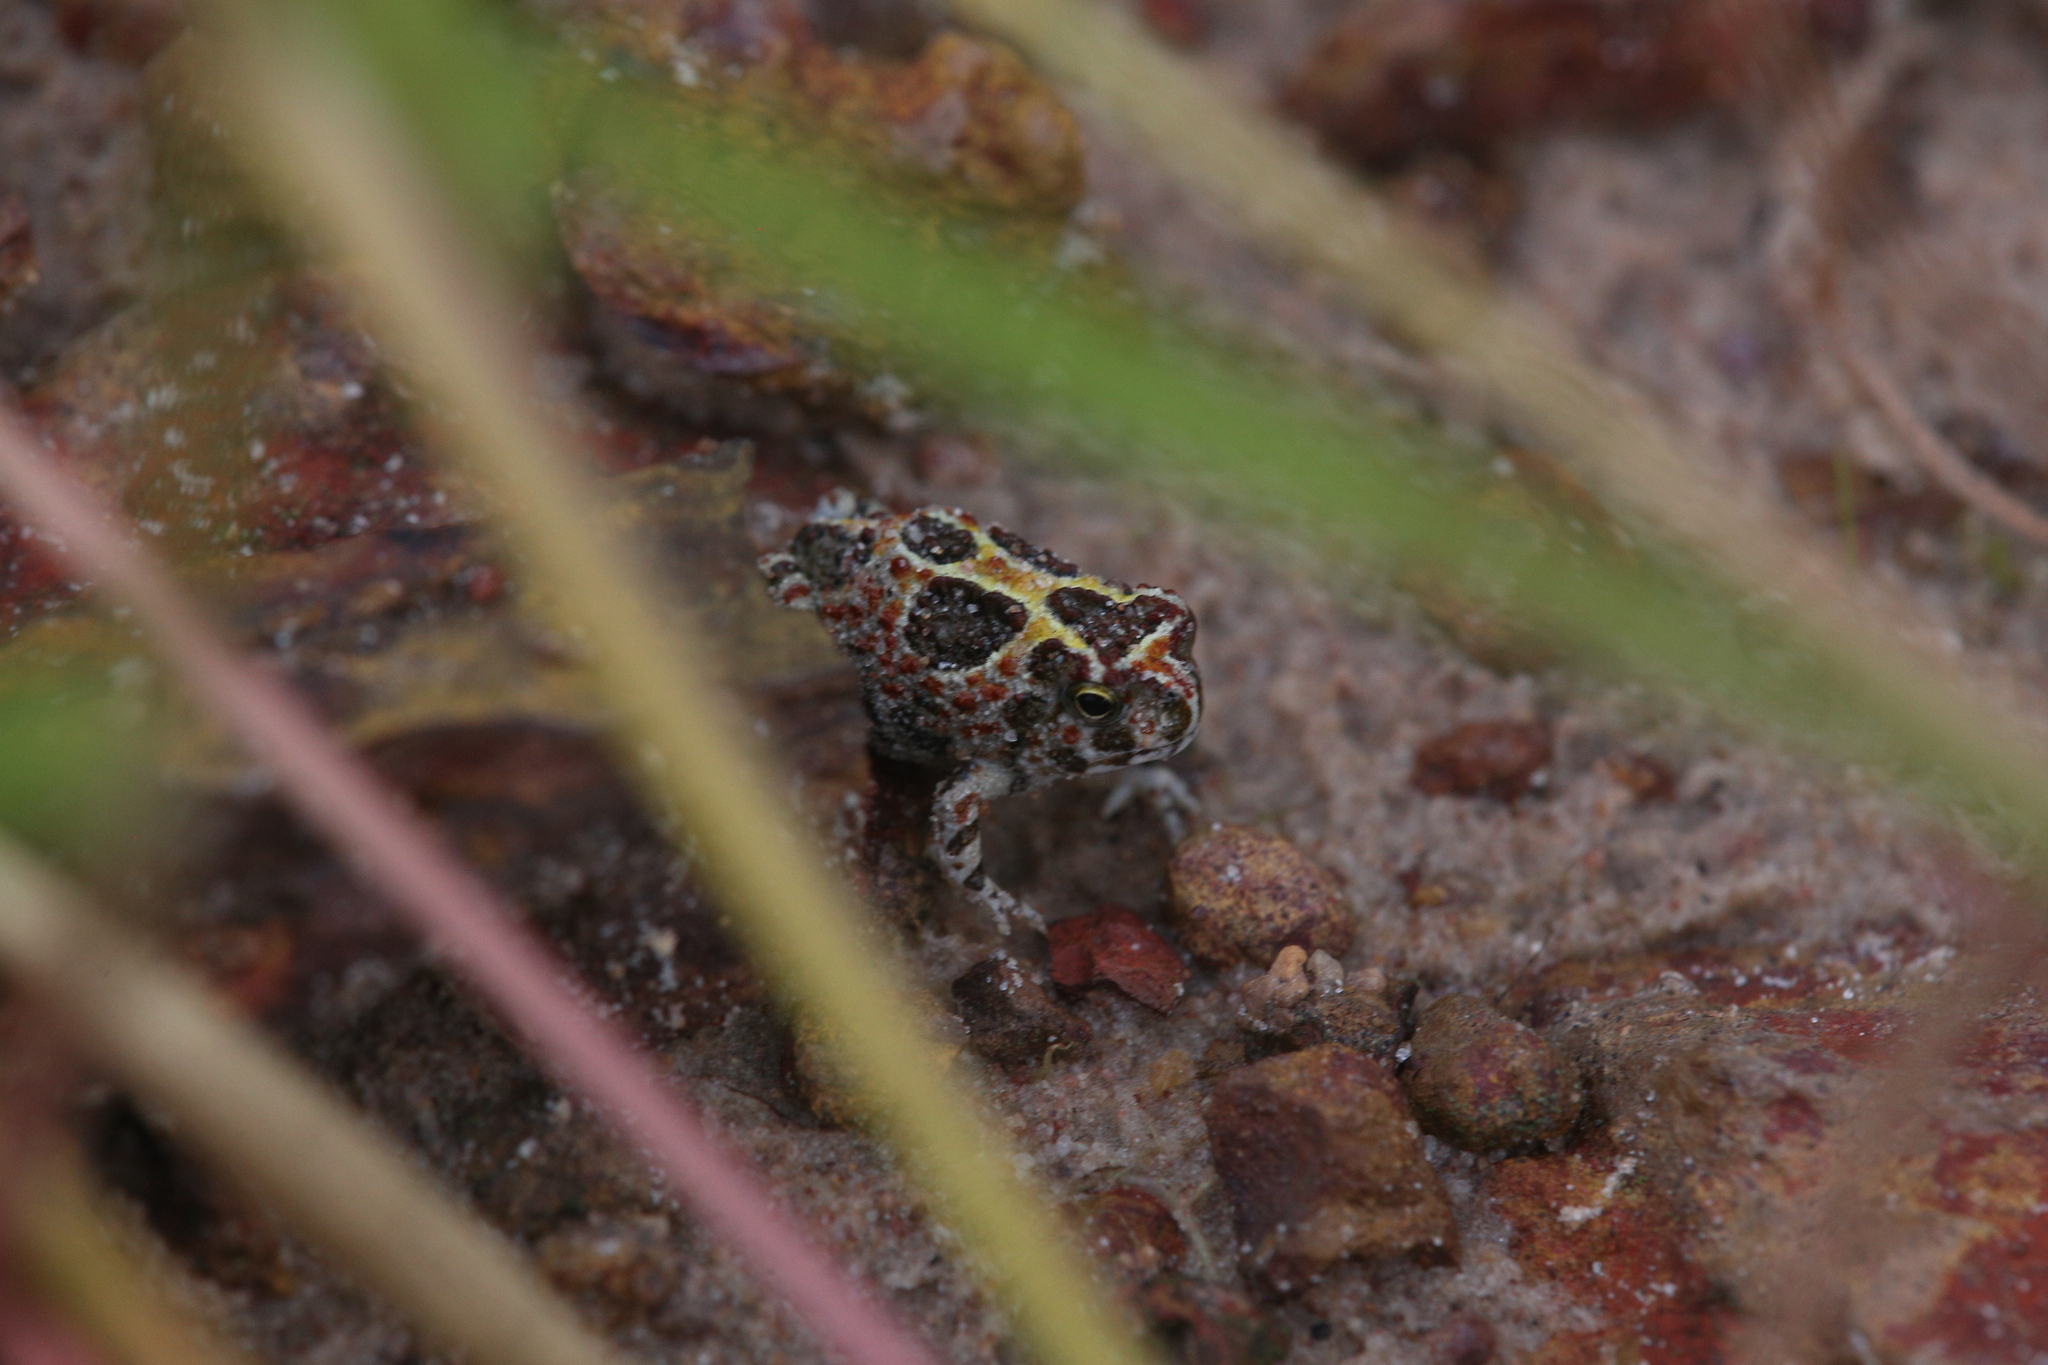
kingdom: Animalia
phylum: Chordata
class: Amphibia
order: Anura
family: Limnodynastidae
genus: Notaden
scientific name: Notaden melanoscaphus
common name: Northern spadefoot toad
